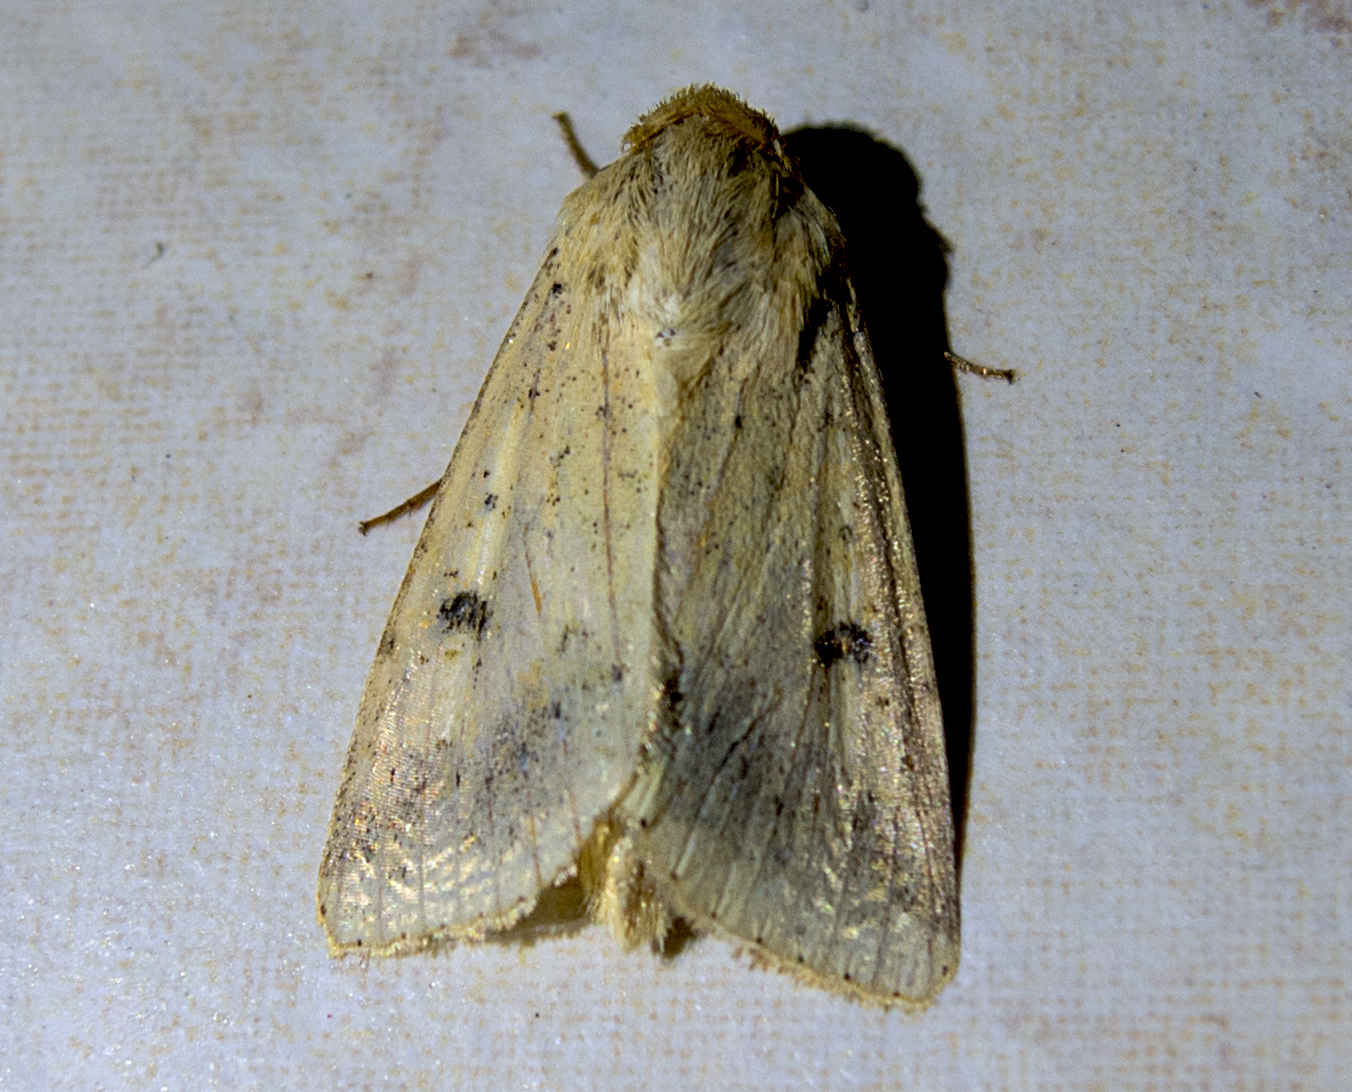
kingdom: Animalia
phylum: Arthropoda
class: Insecta
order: Lepidoptera
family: Noctuidae
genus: Helicoverpa
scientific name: Helicoverpa armigera
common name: Cotton bollworm
